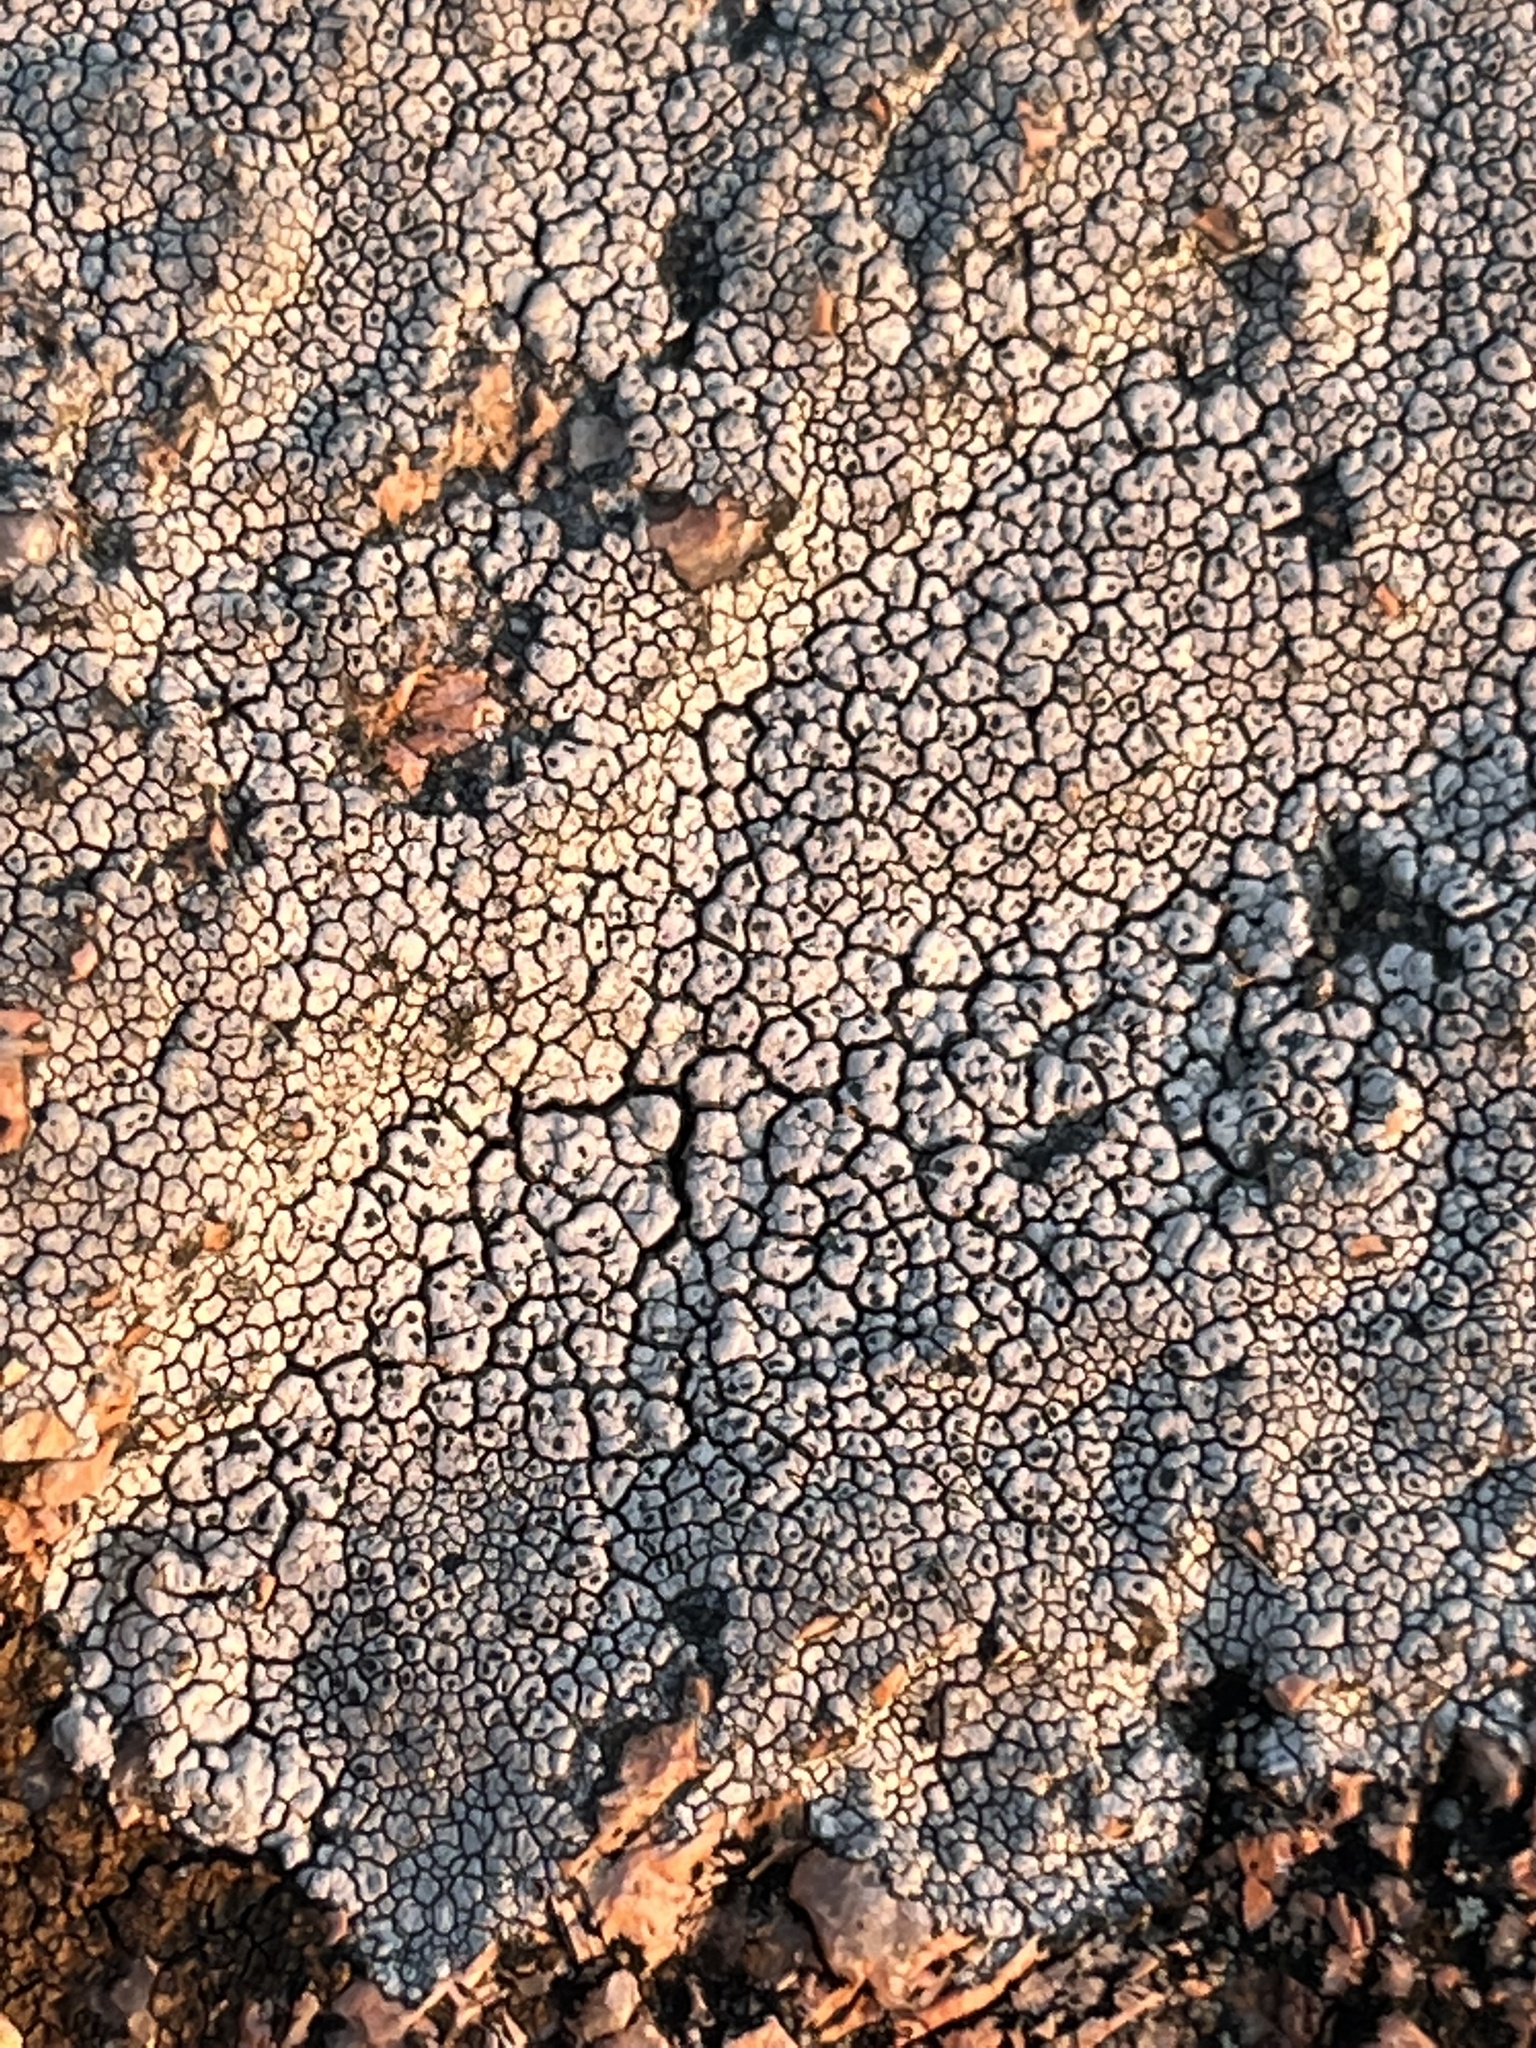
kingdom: Fungi
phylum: Ascomycota
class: Lecanoromycetes
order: Pertusariales
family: Megasporaceae
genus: Aspicilia
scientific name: Aspicilia cinerea
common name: Cinder lichen
